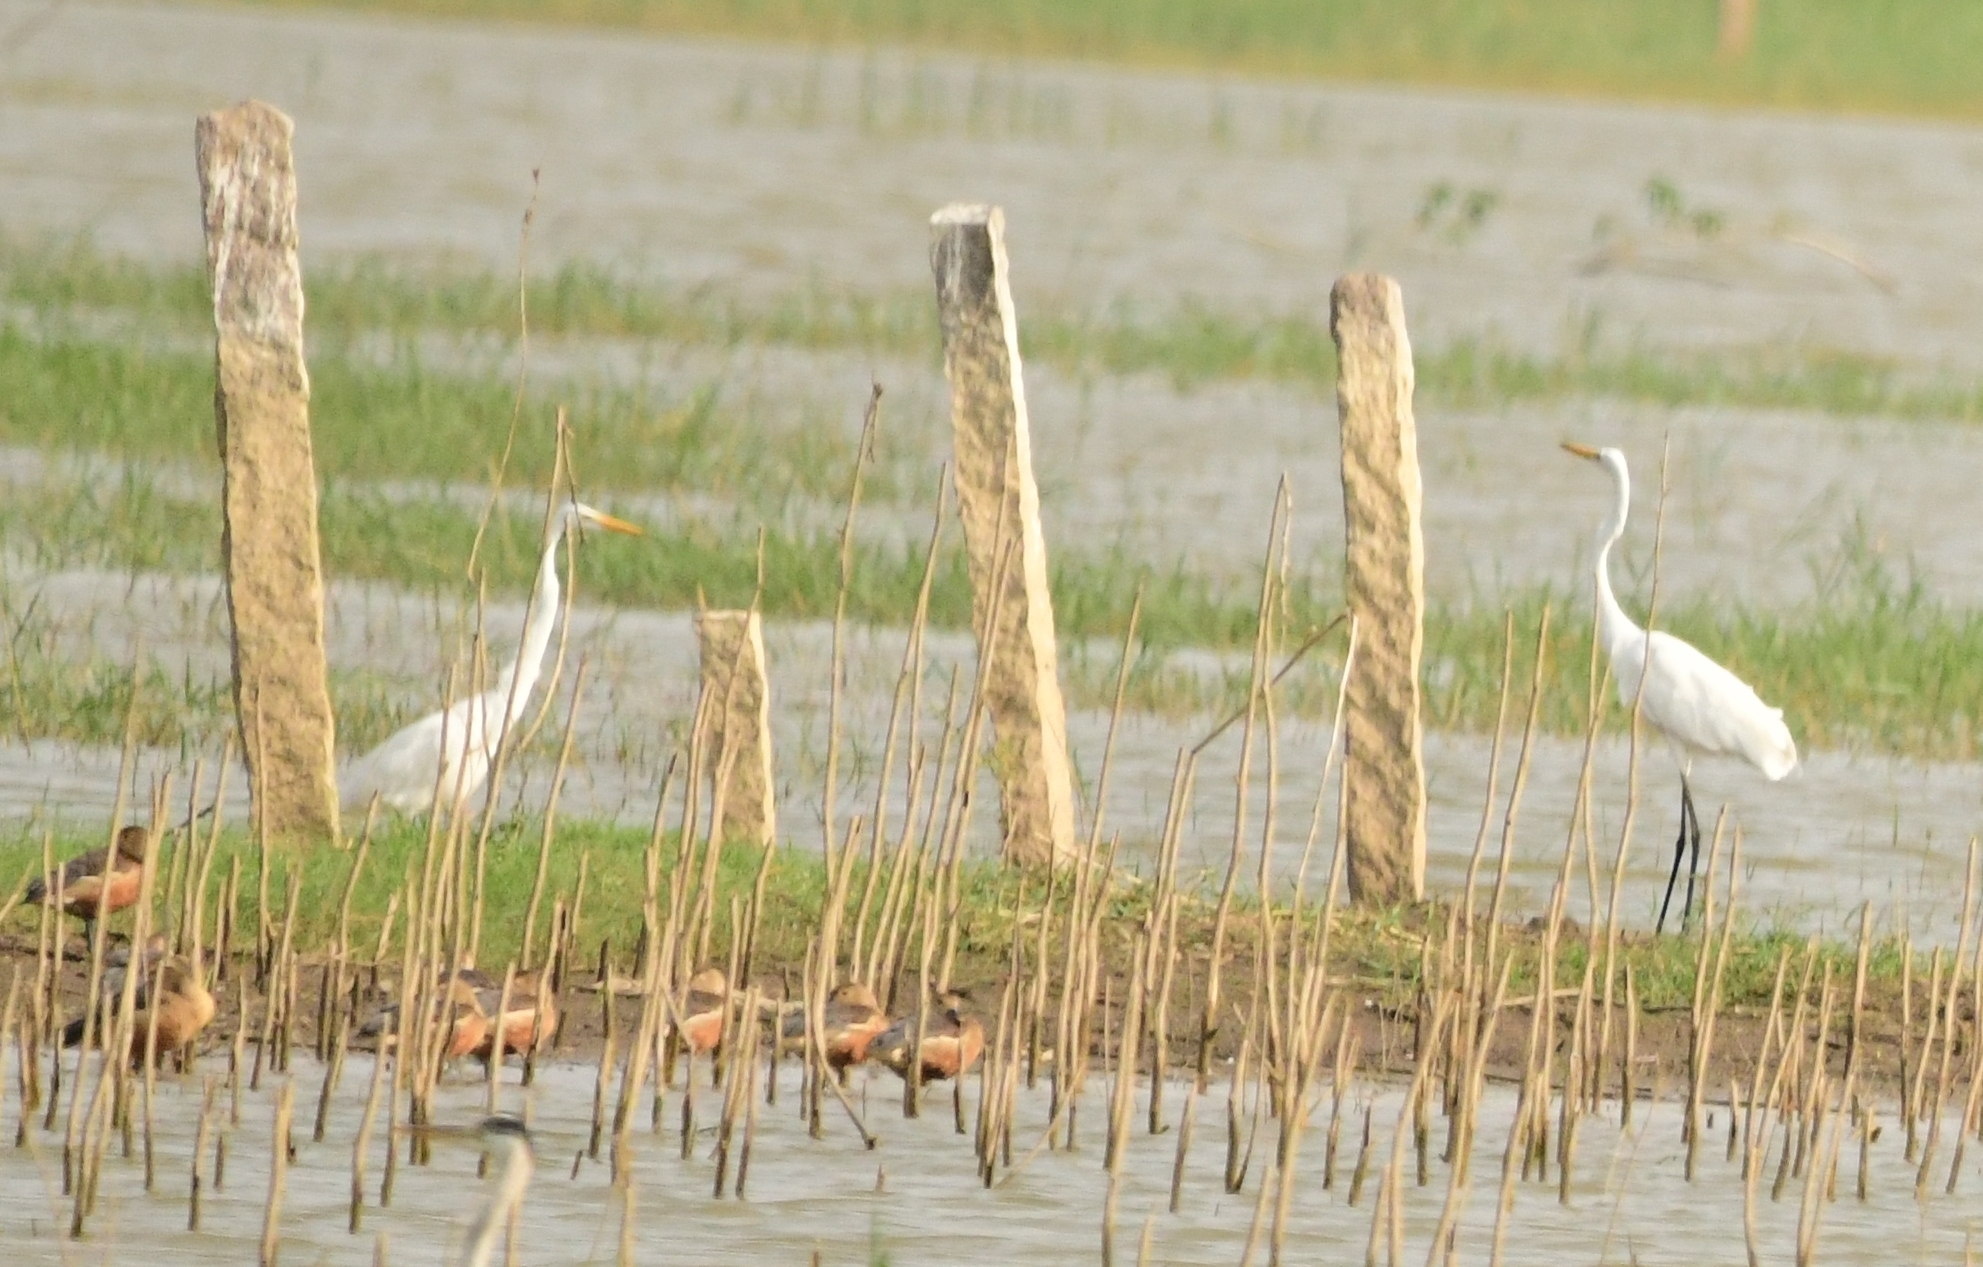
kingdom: Animalia
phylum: Chordata
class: Aves
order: Pelecaniformes
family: Ardeidae
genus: Ardea
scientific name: Ardea alba
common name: Great egret
